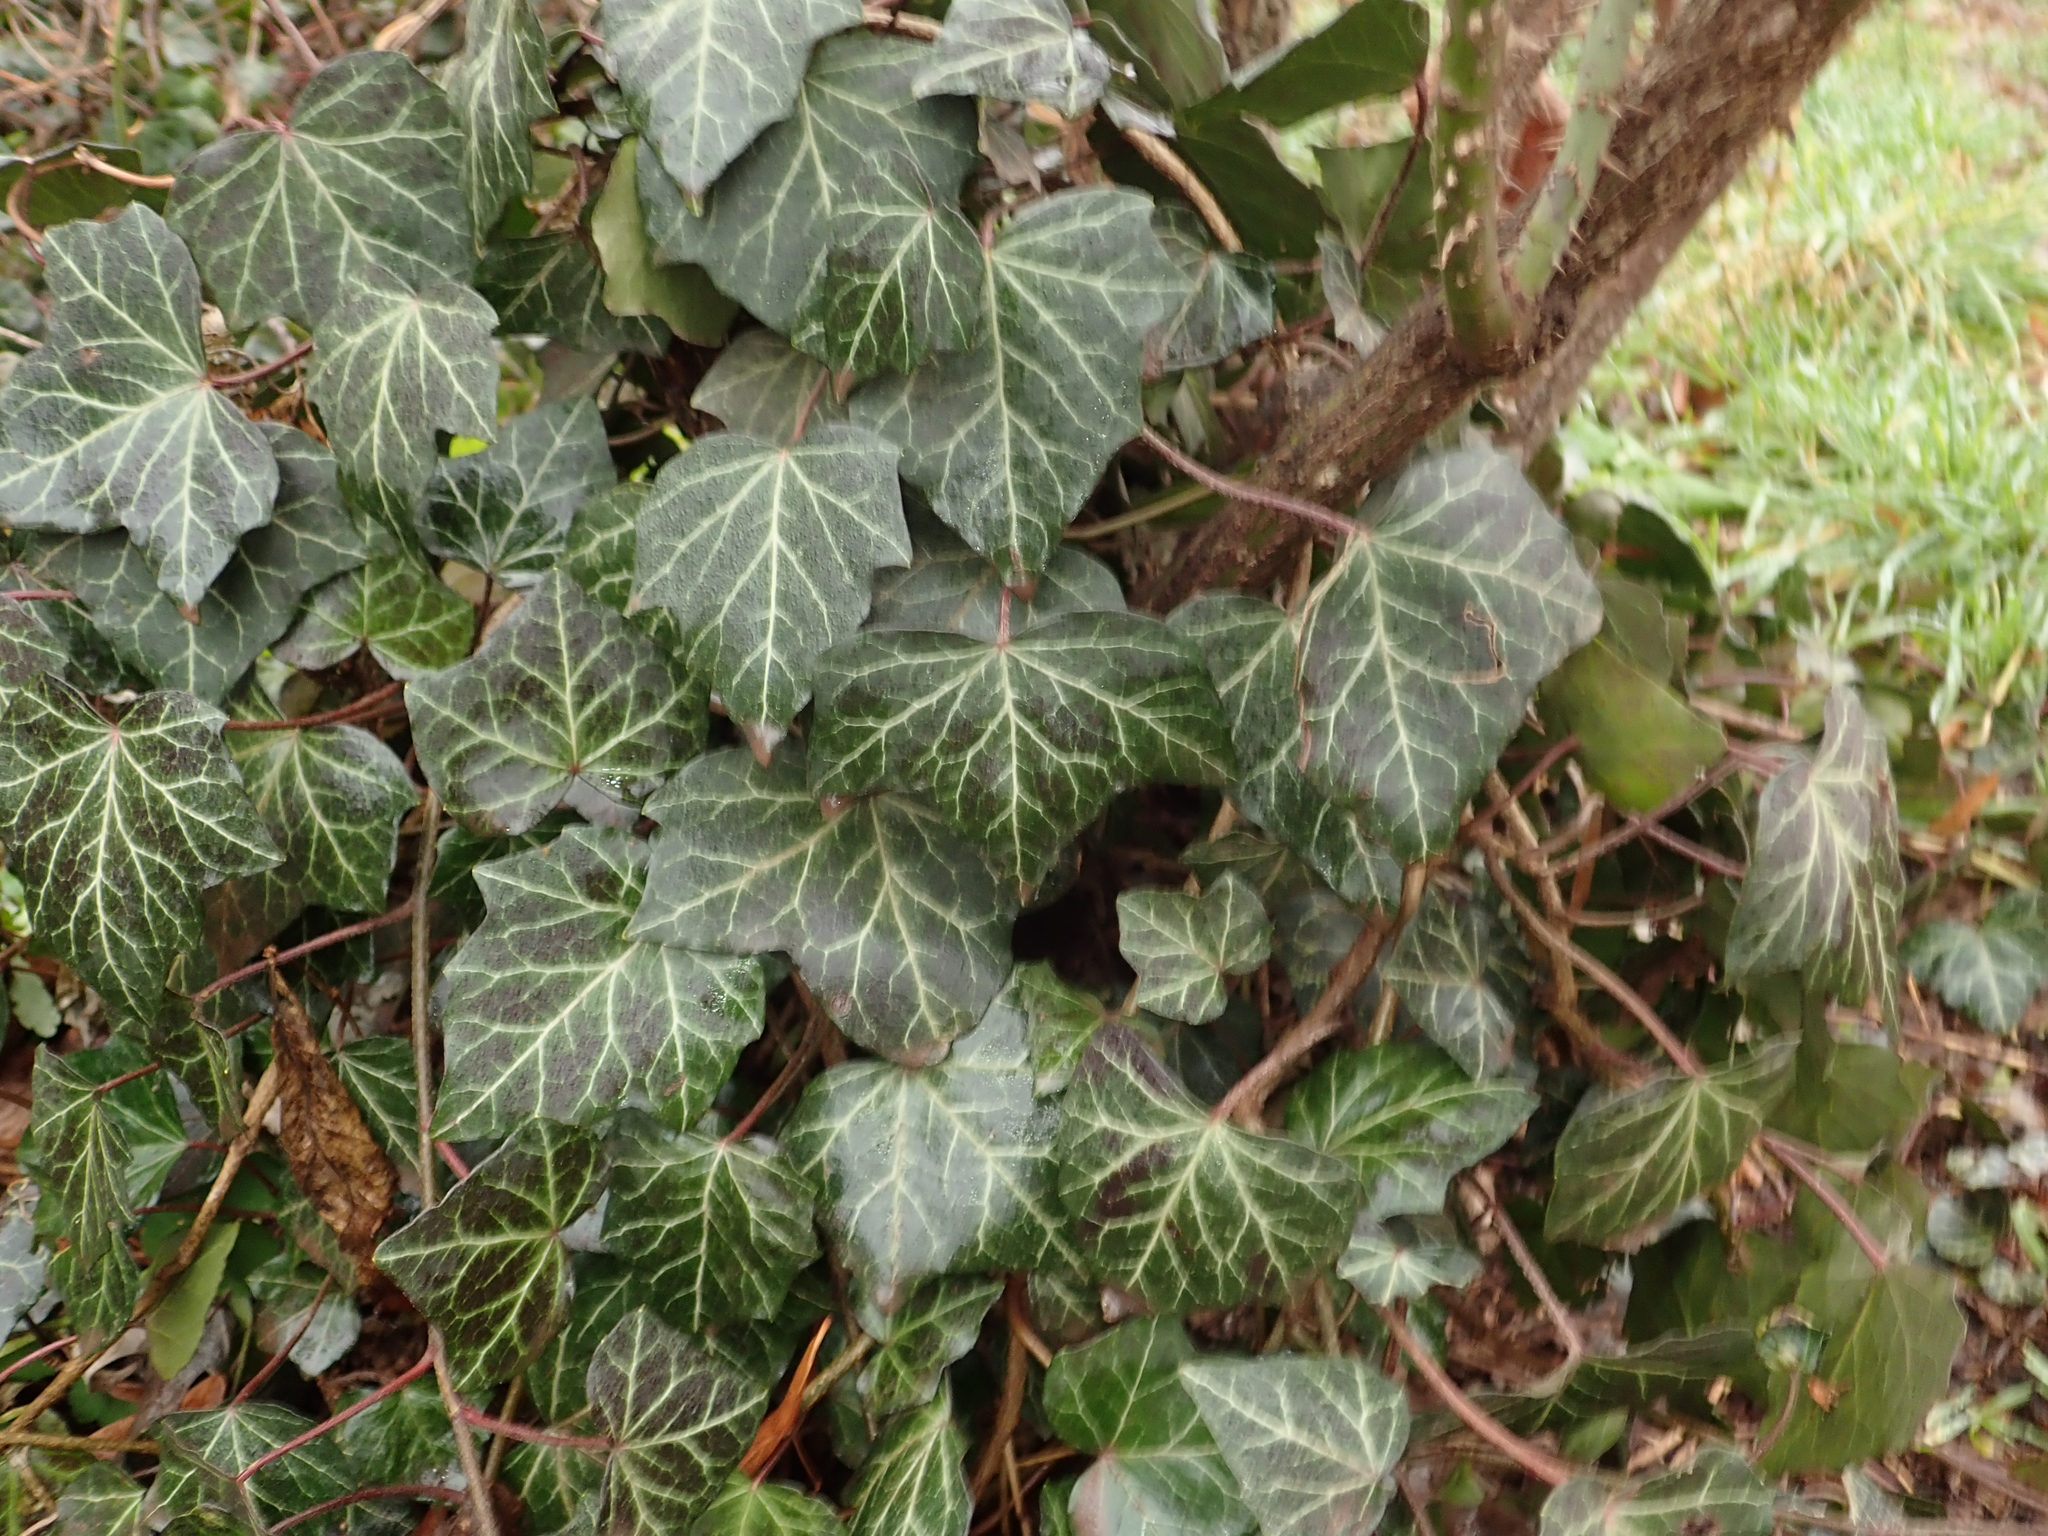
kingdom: Plantae
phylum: Tracheophyta
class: Magnoliopsida
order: Apiales
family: Araliaceae
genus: Hedera
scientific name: Hedera helix
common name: Ivy
